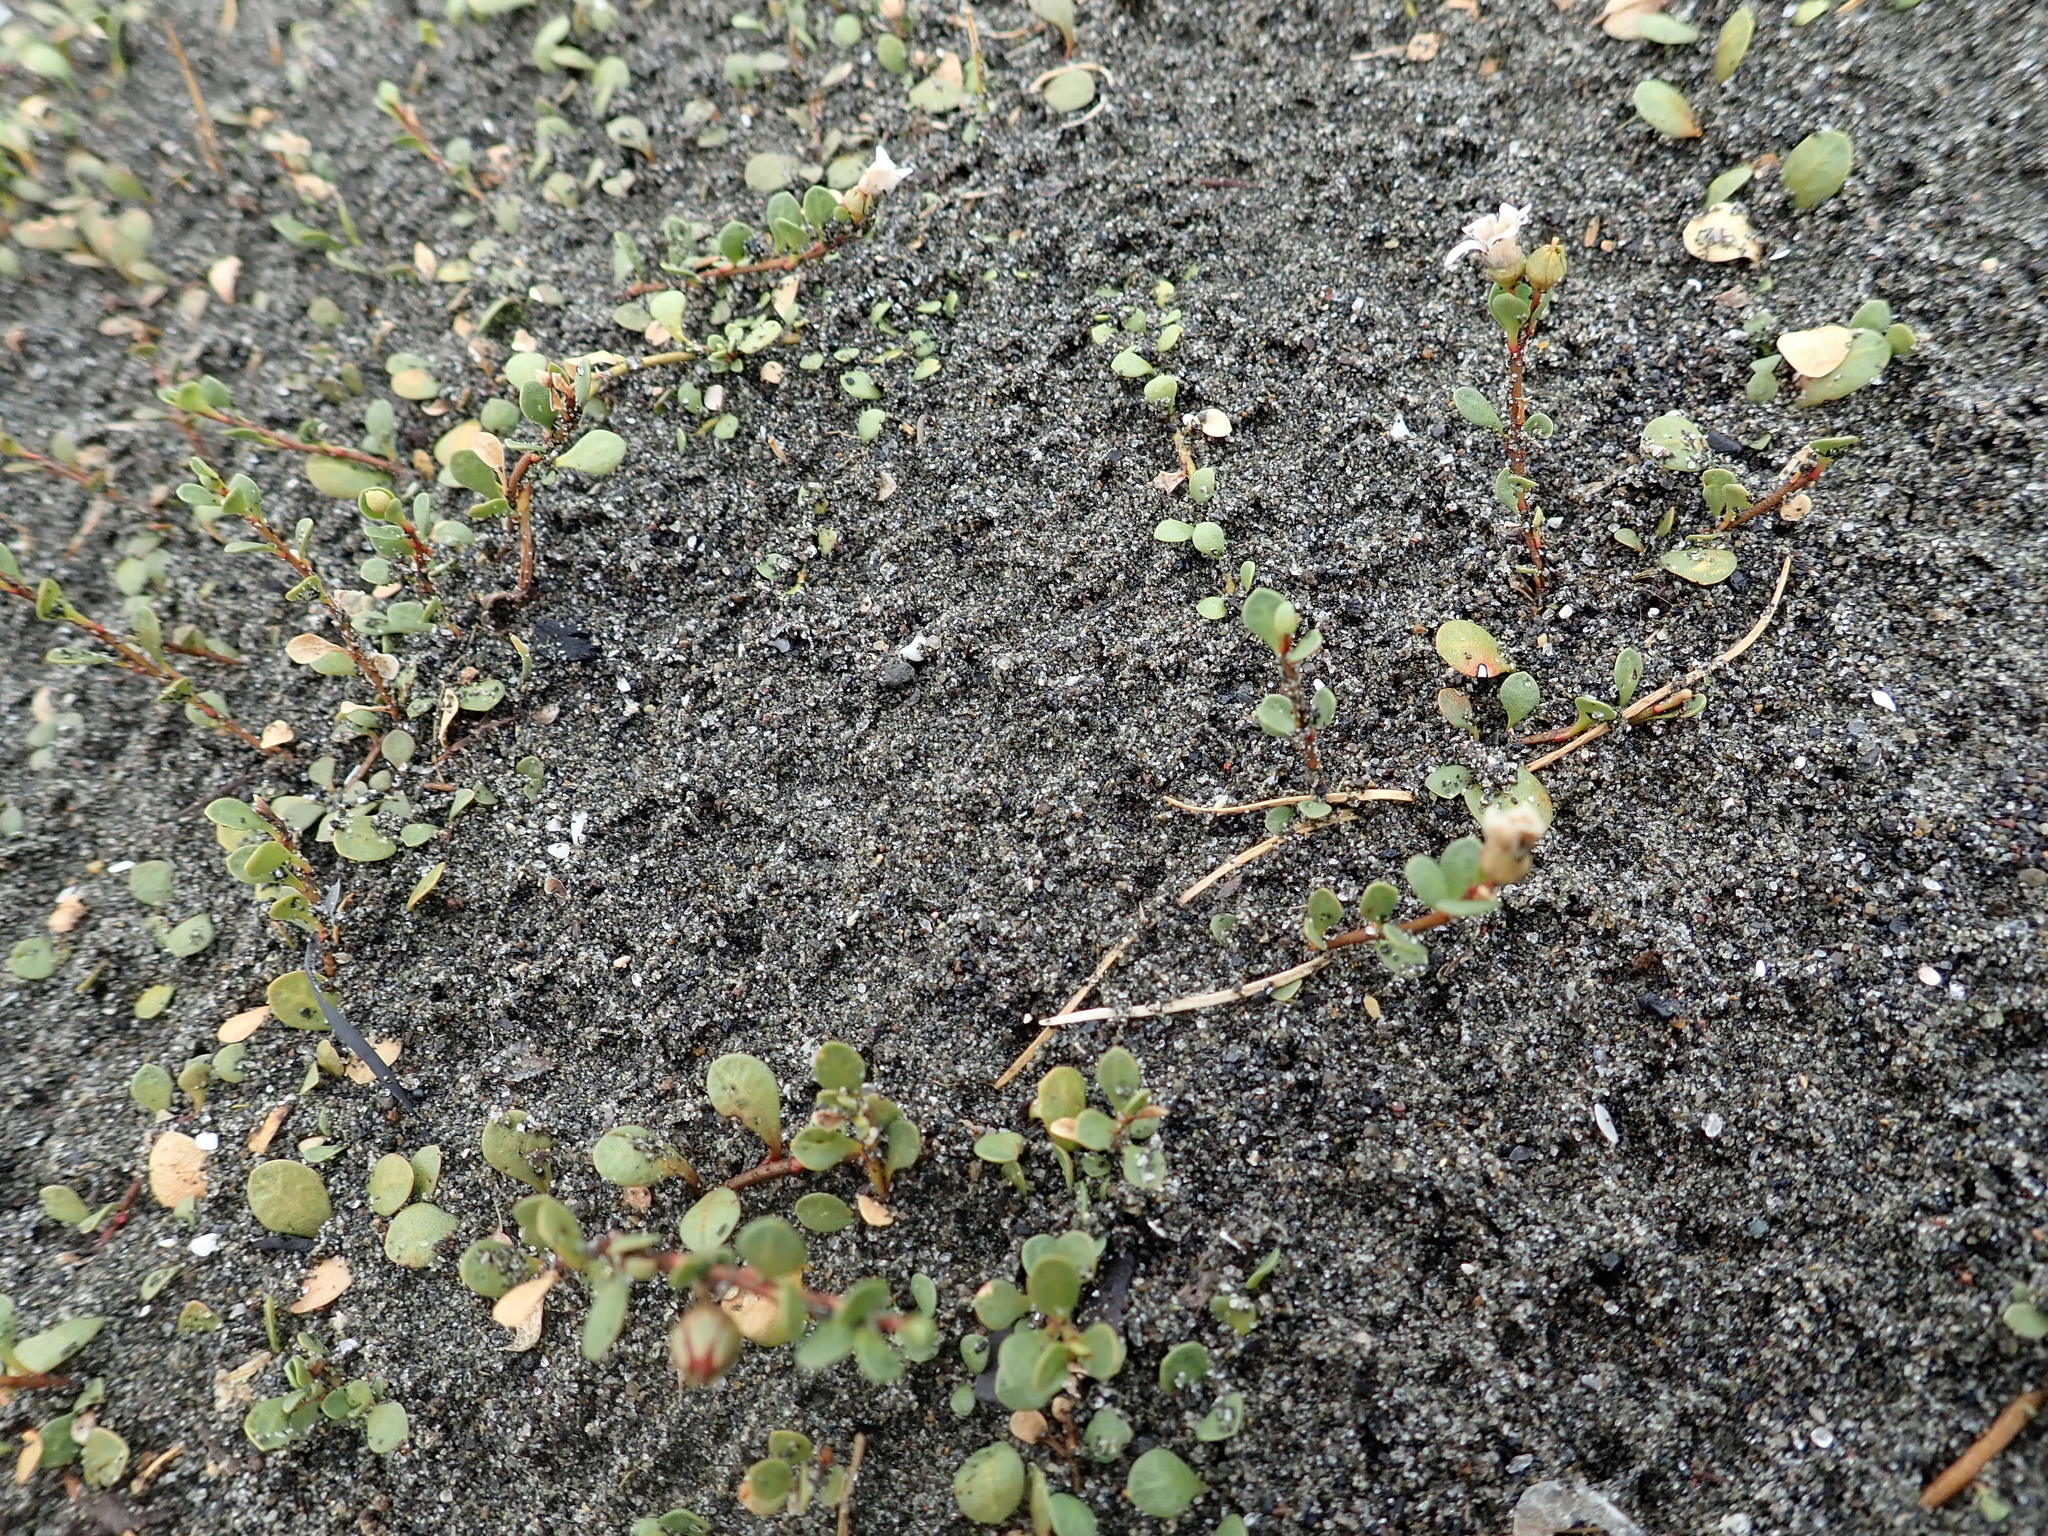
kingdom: Plantae
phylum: Tracheophyta
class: Magnoliopsida
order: Ericales
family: Primulaceae
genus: Samolus
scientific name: Samolus repens
